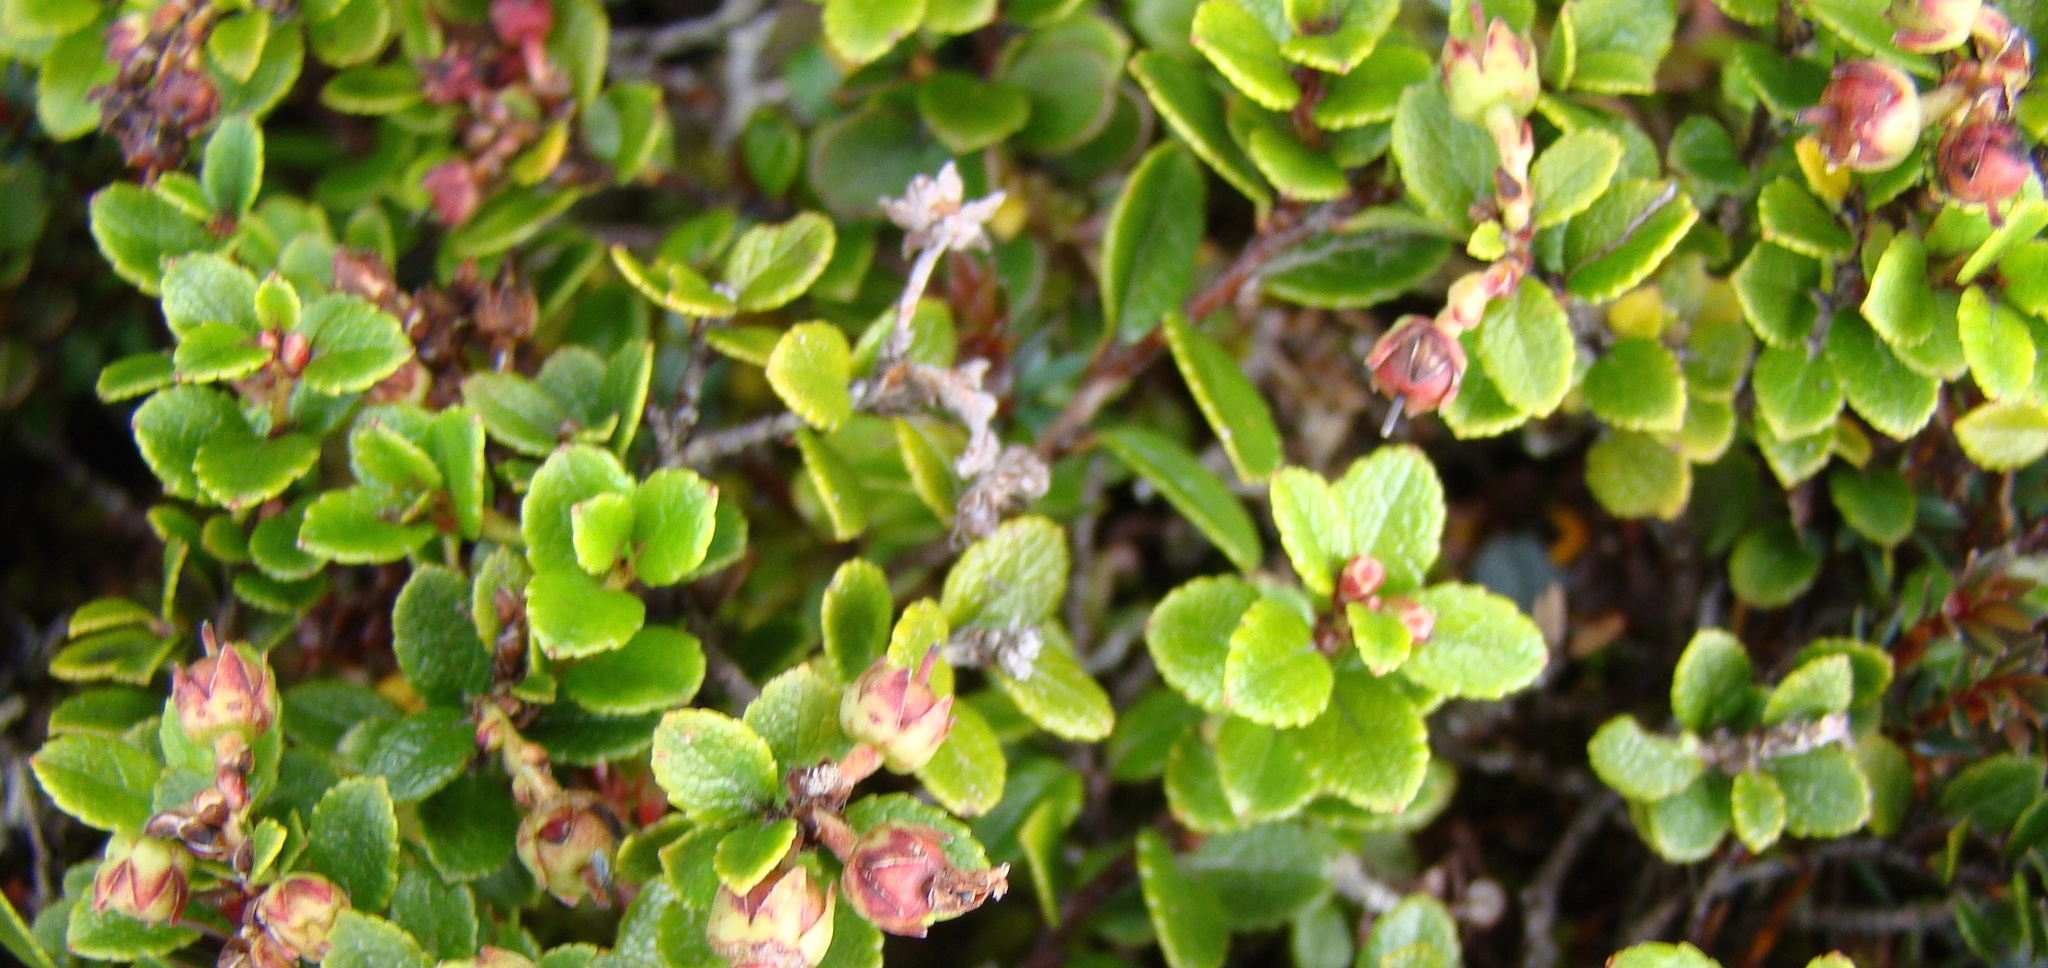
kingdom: Plantae
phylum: Tracheophyta
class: Magnoliopsida
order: Ericales
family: Ericaceae
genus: Gaultheria
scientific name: Gaultheria crassa
